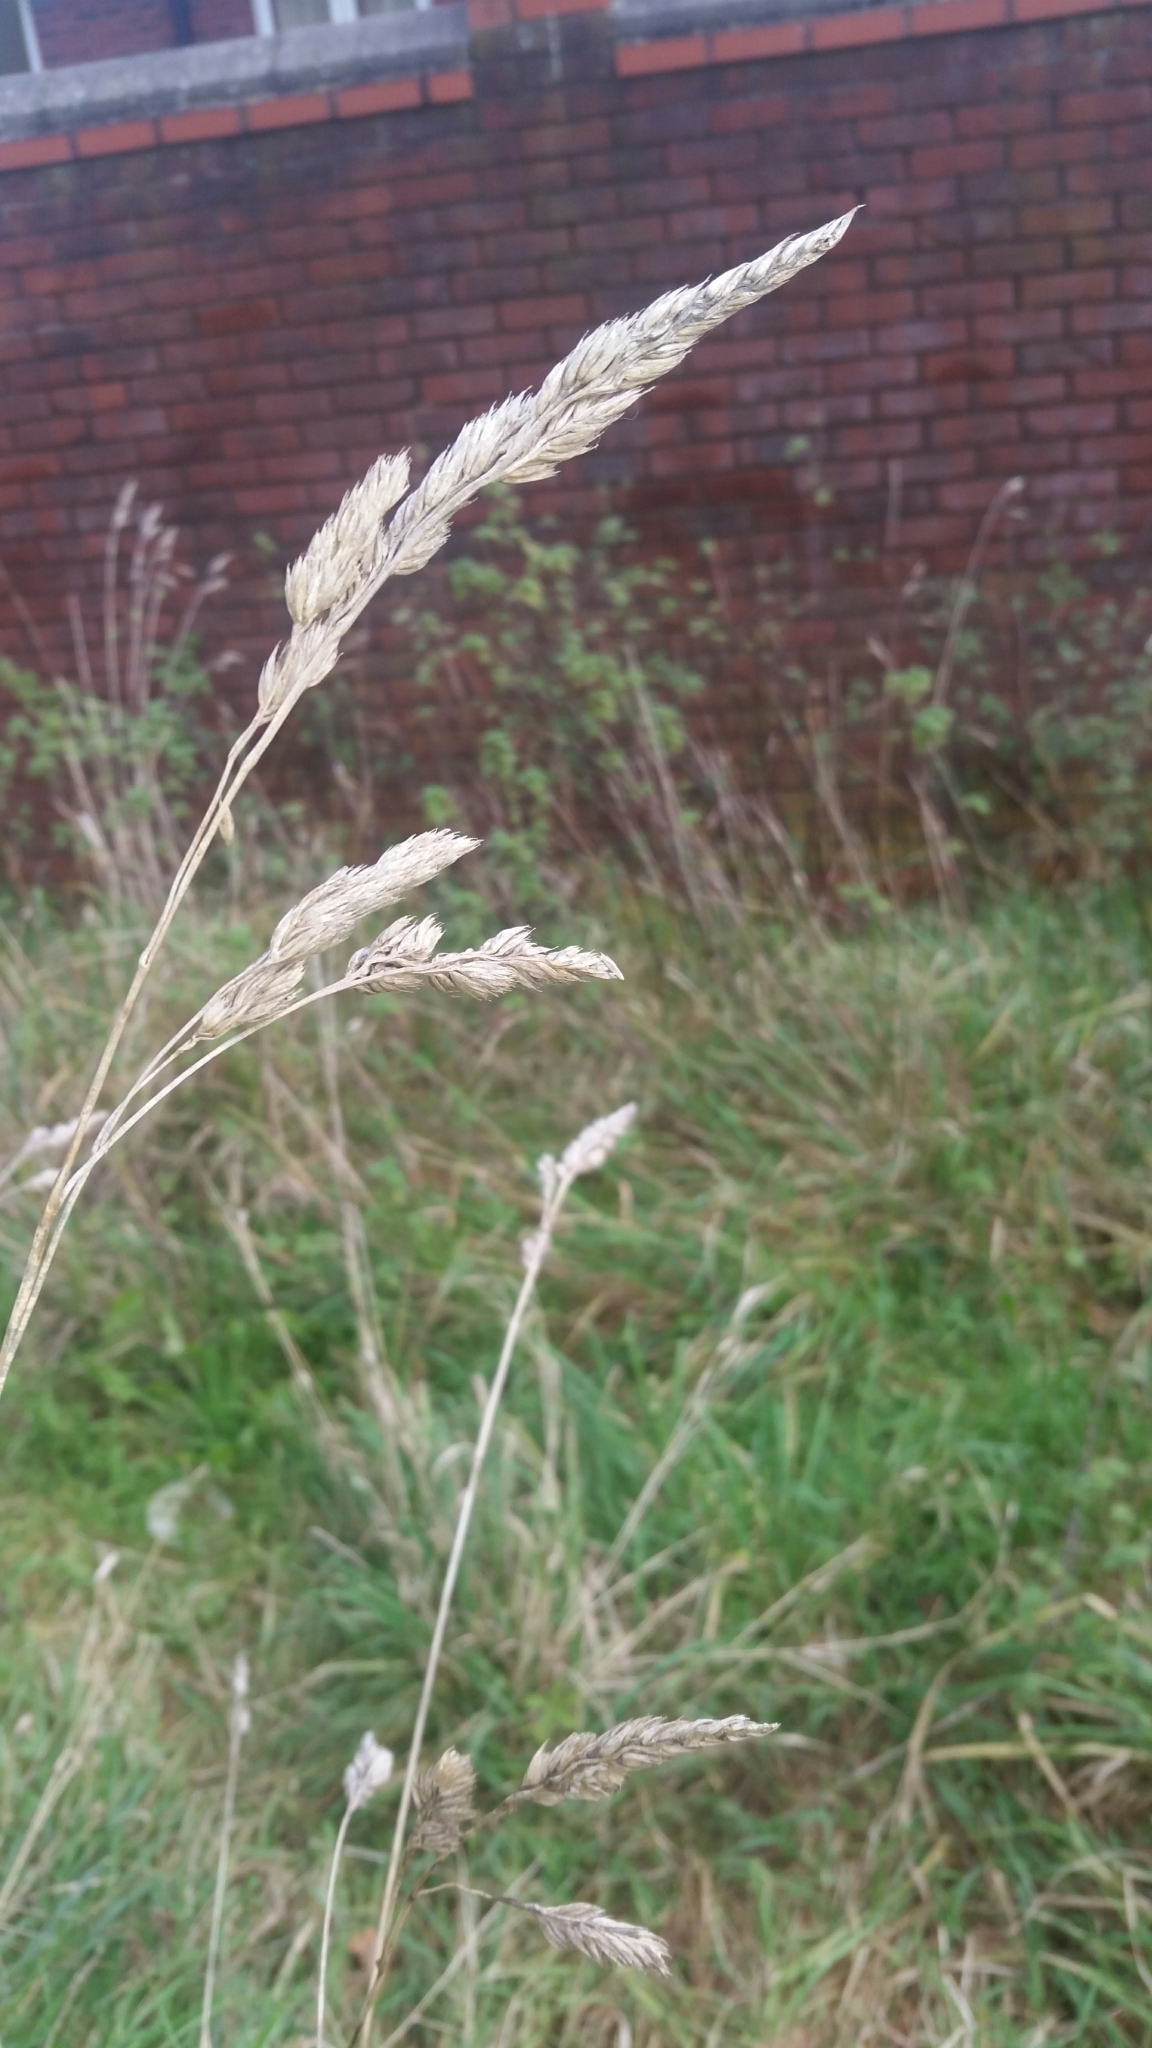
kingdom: Plantae
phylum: Tracheophyta
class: Liliopsida
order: Poales
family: Poaceae
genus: Dactylis
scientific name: Dactylis glomerata
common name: Orchardgrass
